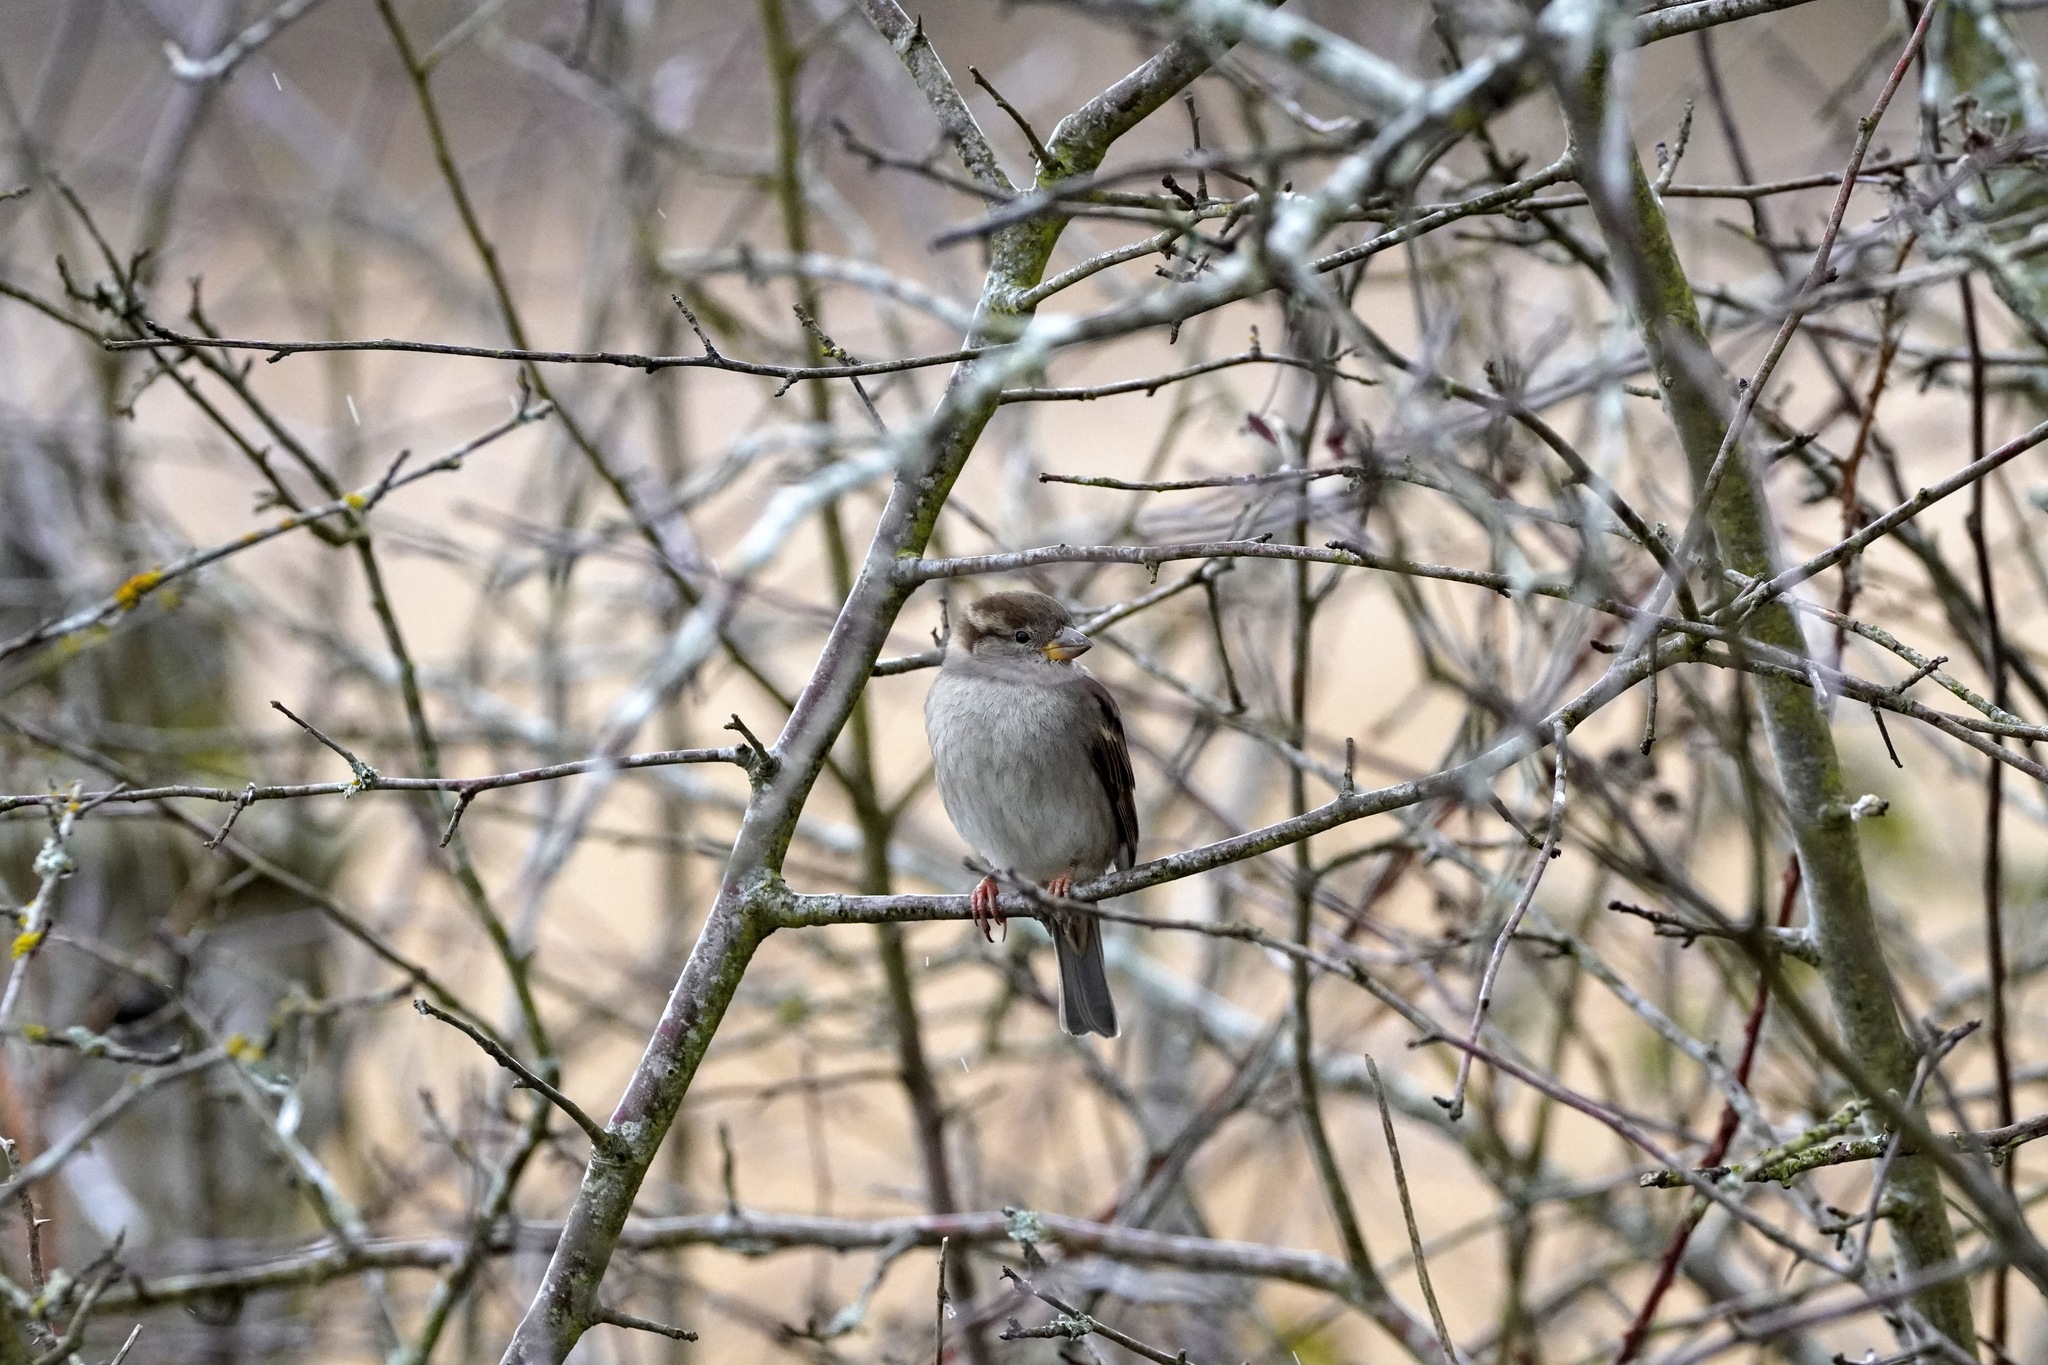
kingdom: Animalia
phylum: Chordata
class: Aves
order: Passeriformes
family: Passeridae
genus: Passer
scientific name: Passer domesticus
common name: House sparrow
